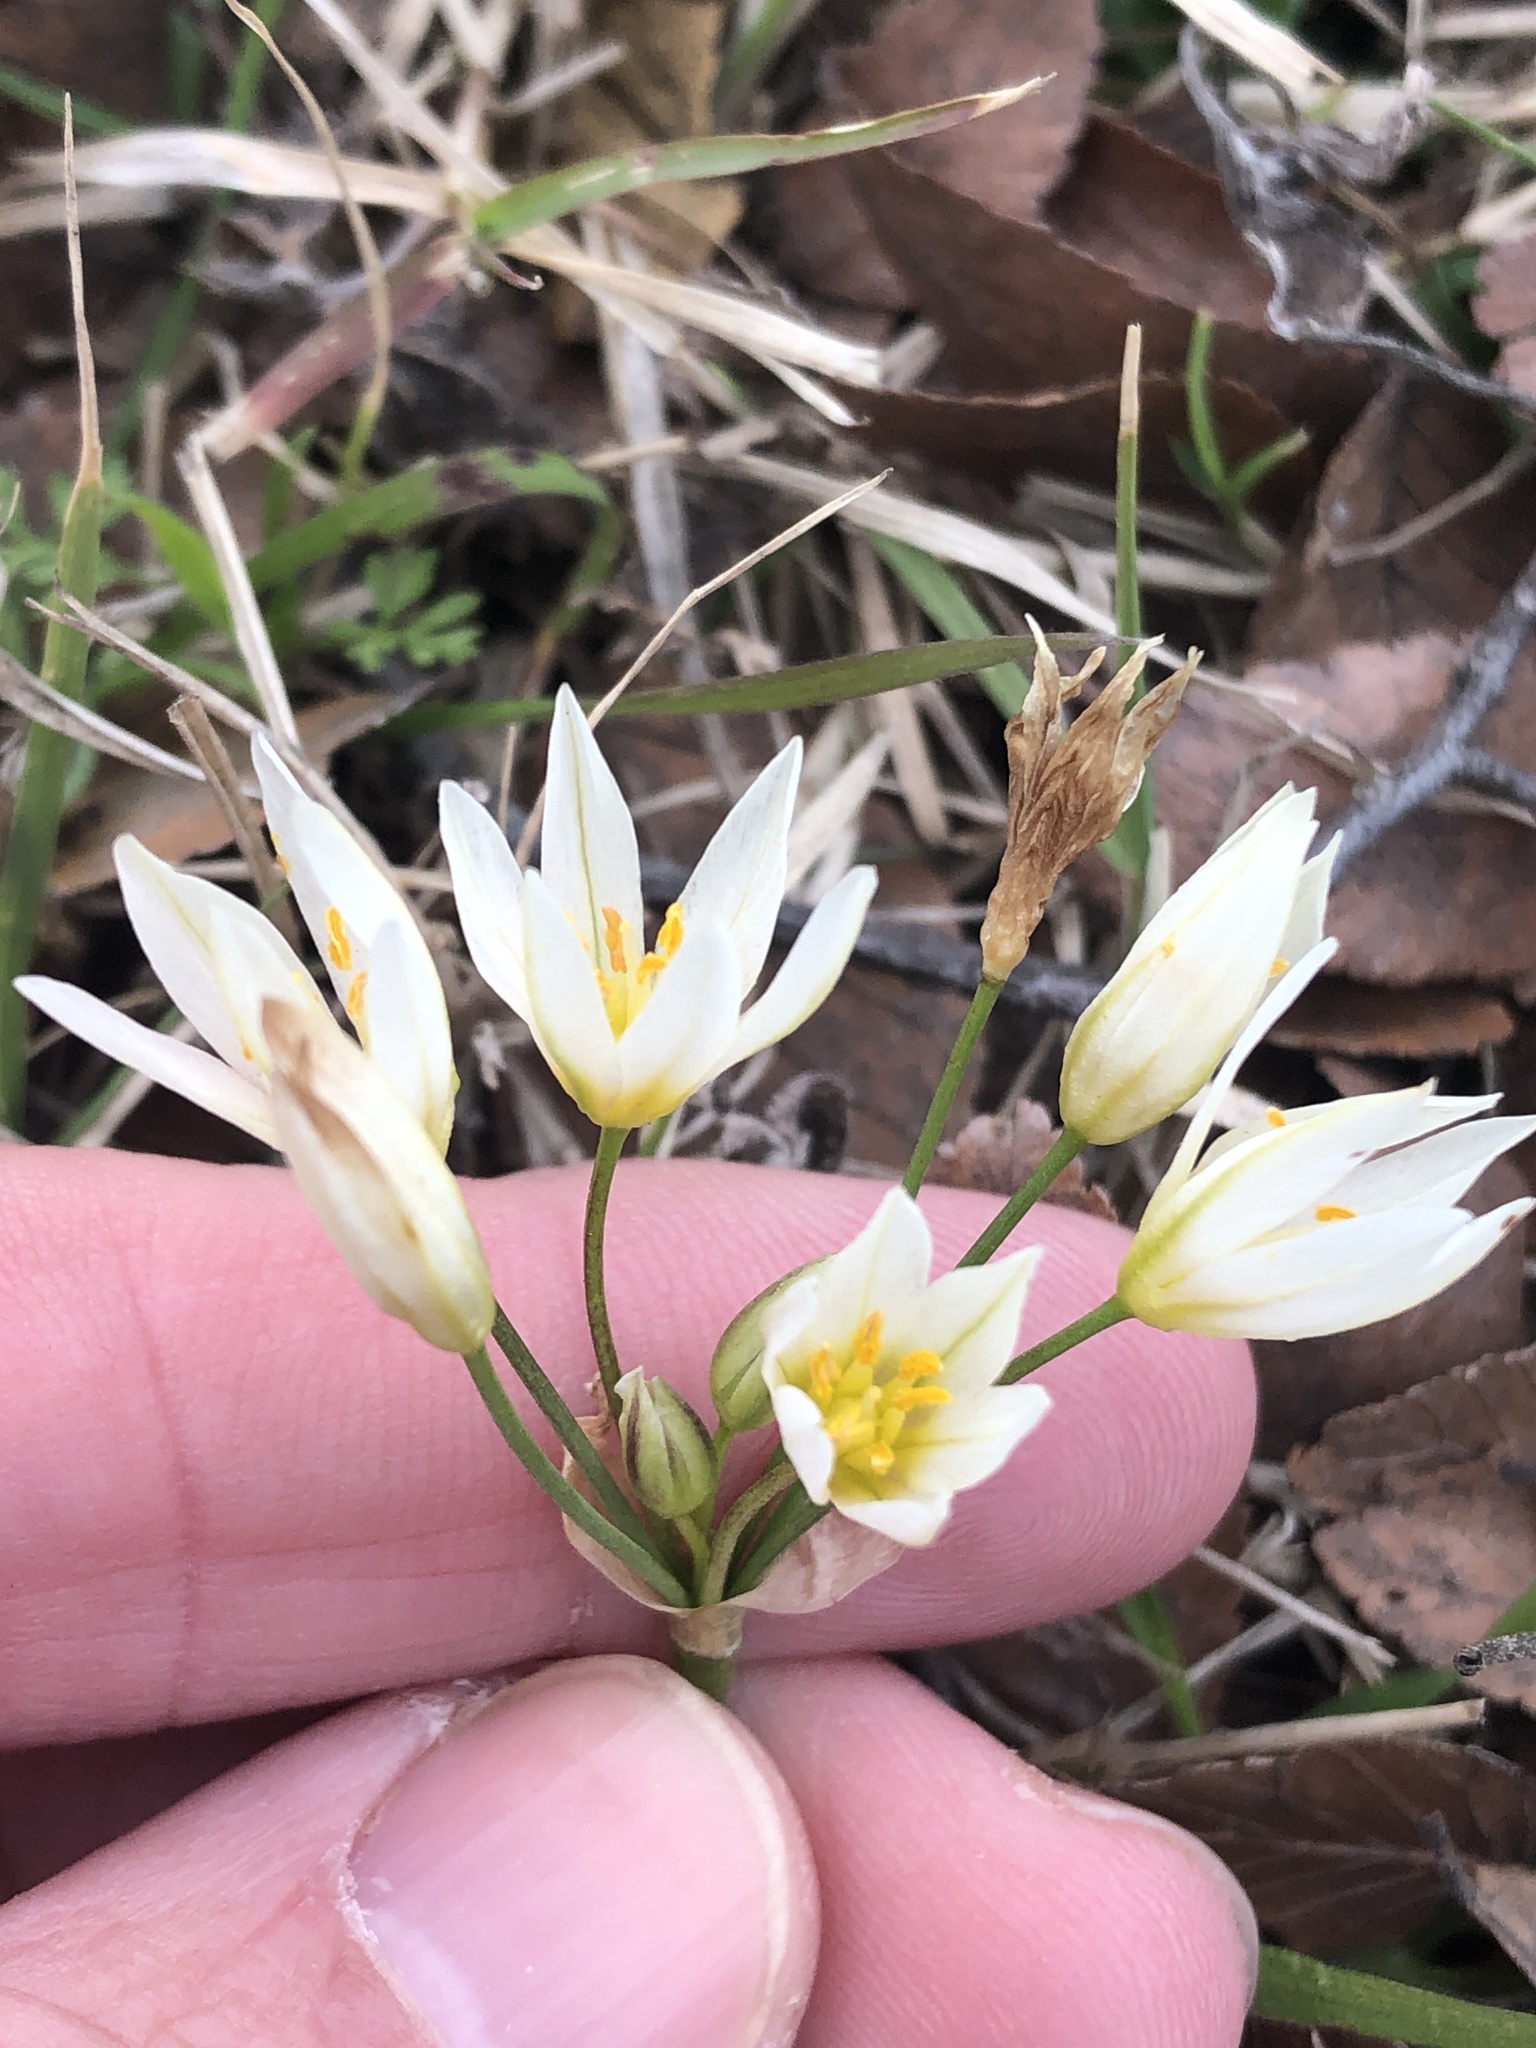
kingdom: Plantae
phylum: Tracheophyta
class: Liliopsida
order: Asparagales
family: Amaryllidaceae
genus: Nothoscordum
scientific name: Nothoscordum bivalve
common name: Crow-poison
